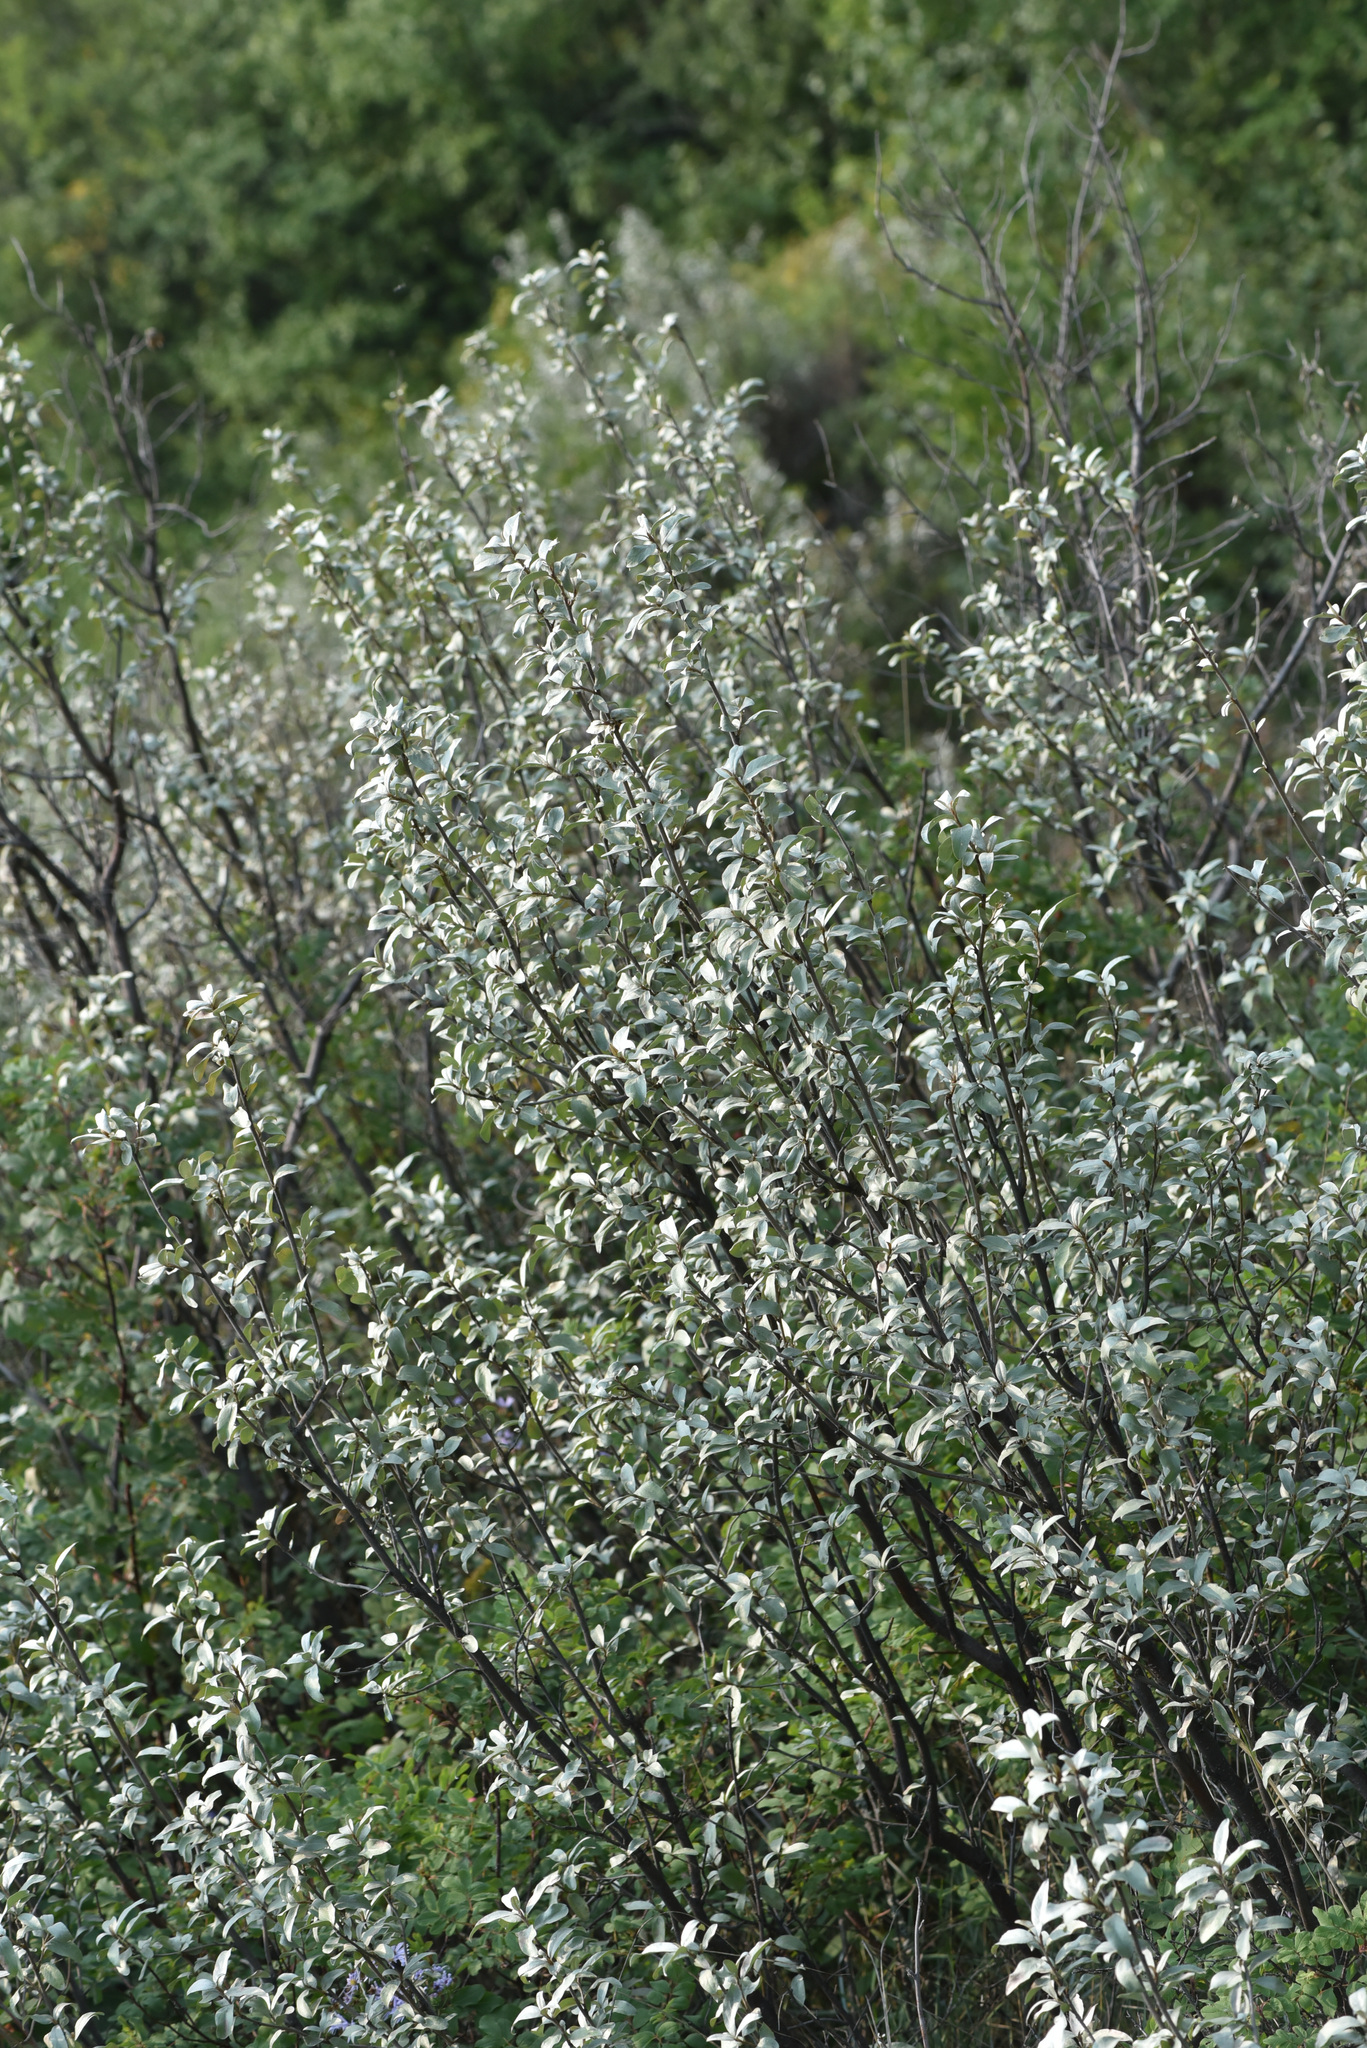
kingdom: Plantae
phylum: Tracheophyta
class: Magnoliopsida
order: Rosales
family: Elaeagnaceae
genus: Elaeagnus
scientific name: Elaeagnus commutata
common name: Silverberry
